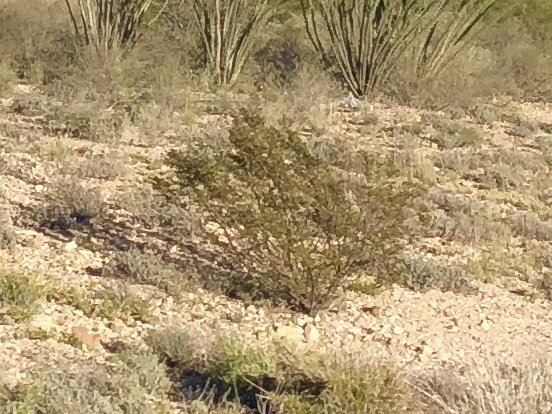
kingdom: Plantae
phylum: Tracheophyta
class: Magnoliopsida
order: Zygophyllales
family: Zygophyllaceae
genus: Larrea
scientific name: Larrea tridentata
